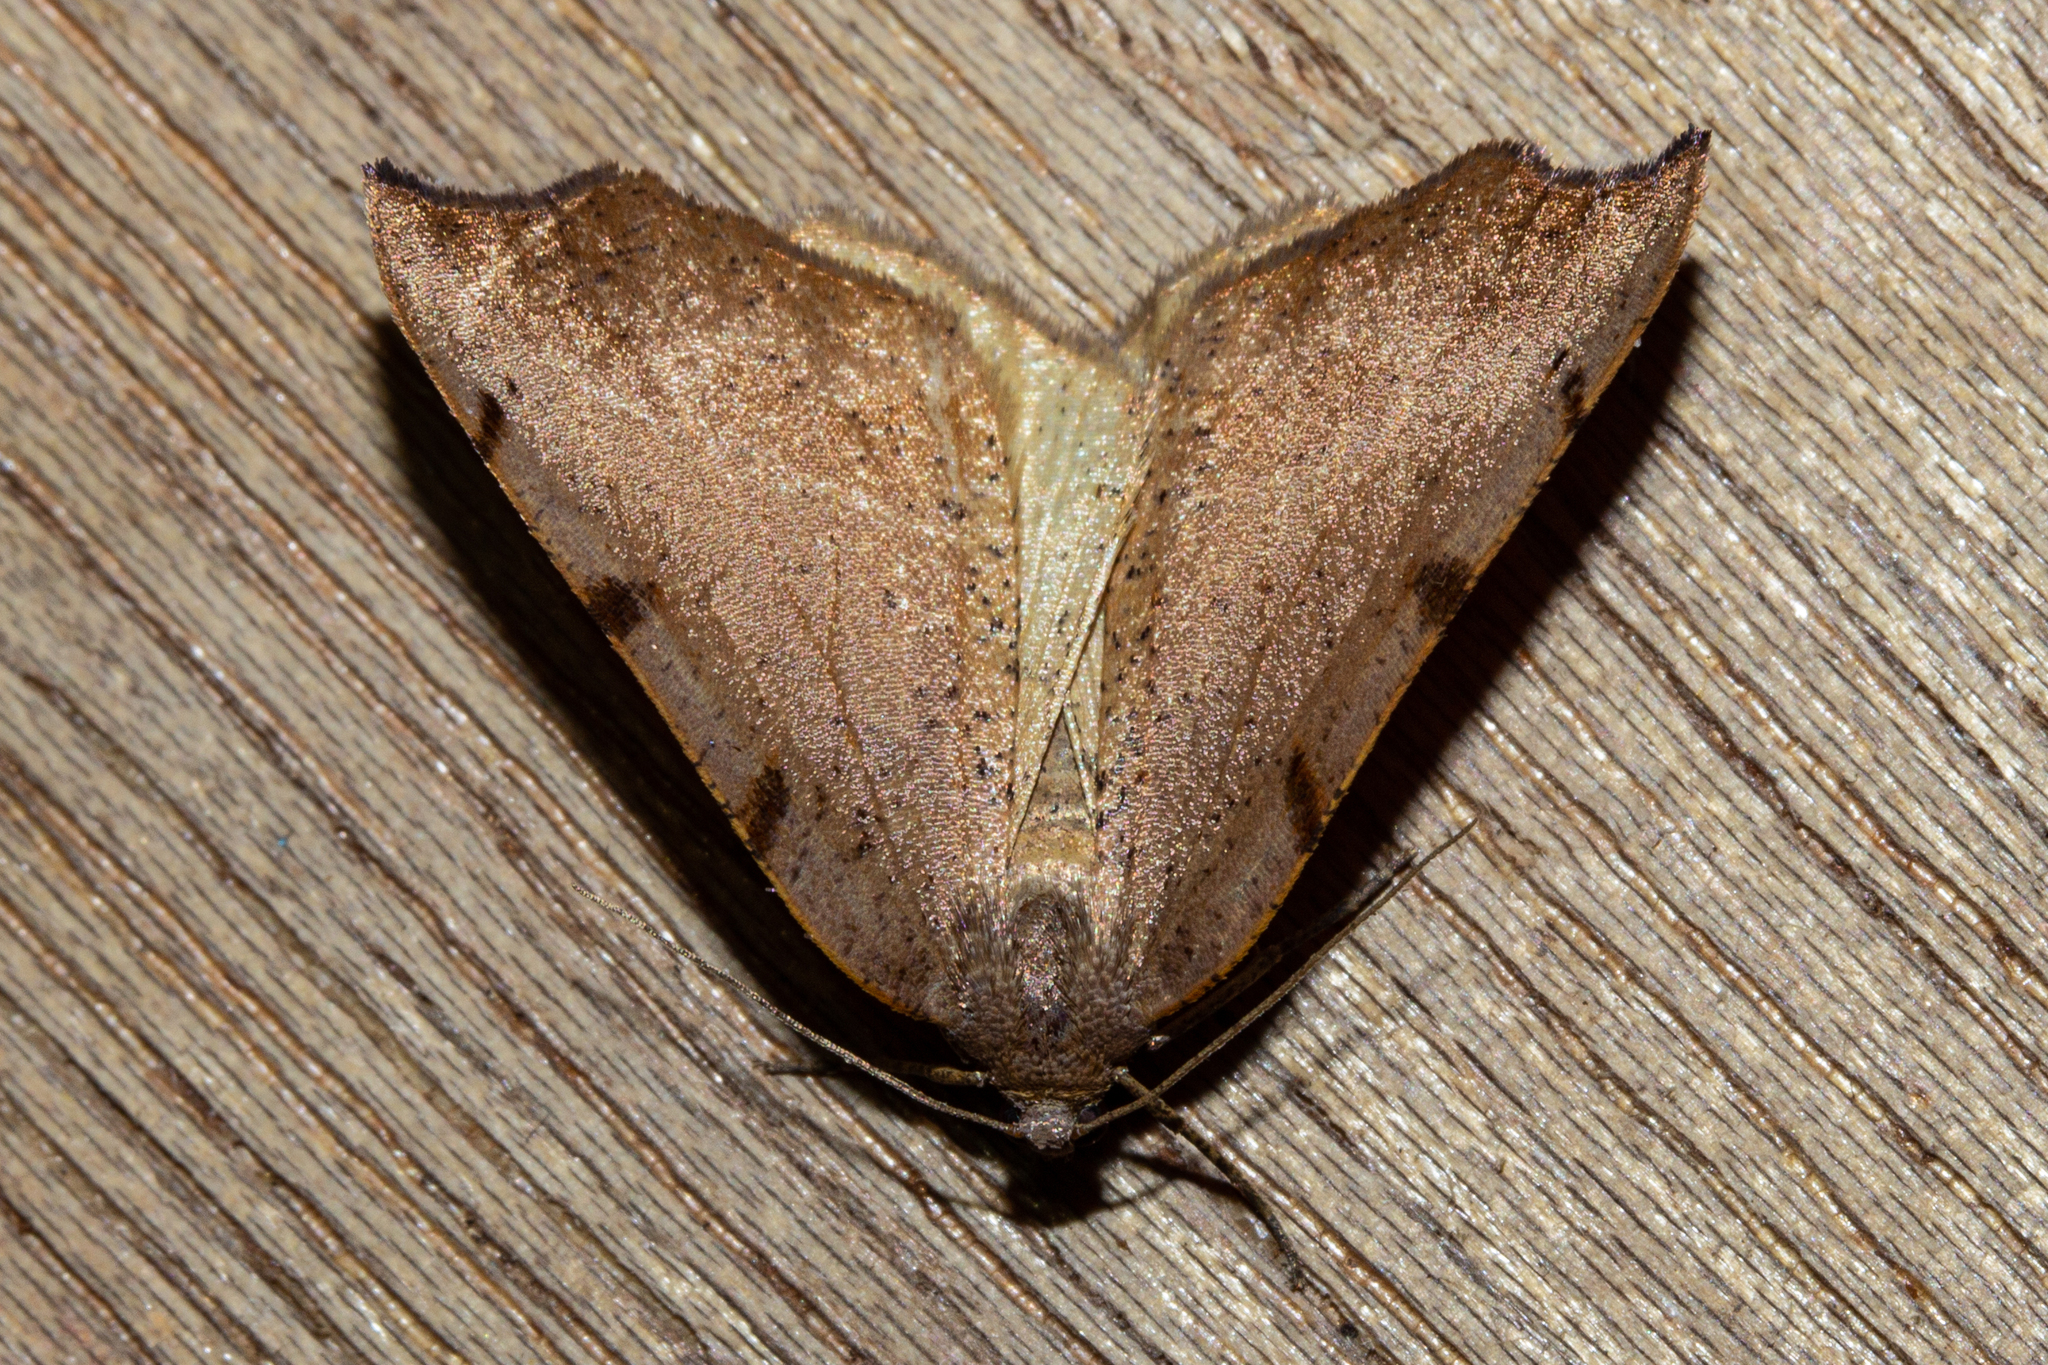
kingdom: Animalia
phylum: Arthropoda
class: Insecta
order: Lepidoptera
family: Geometridae
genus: Sestra
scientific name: Sestra humeraria
